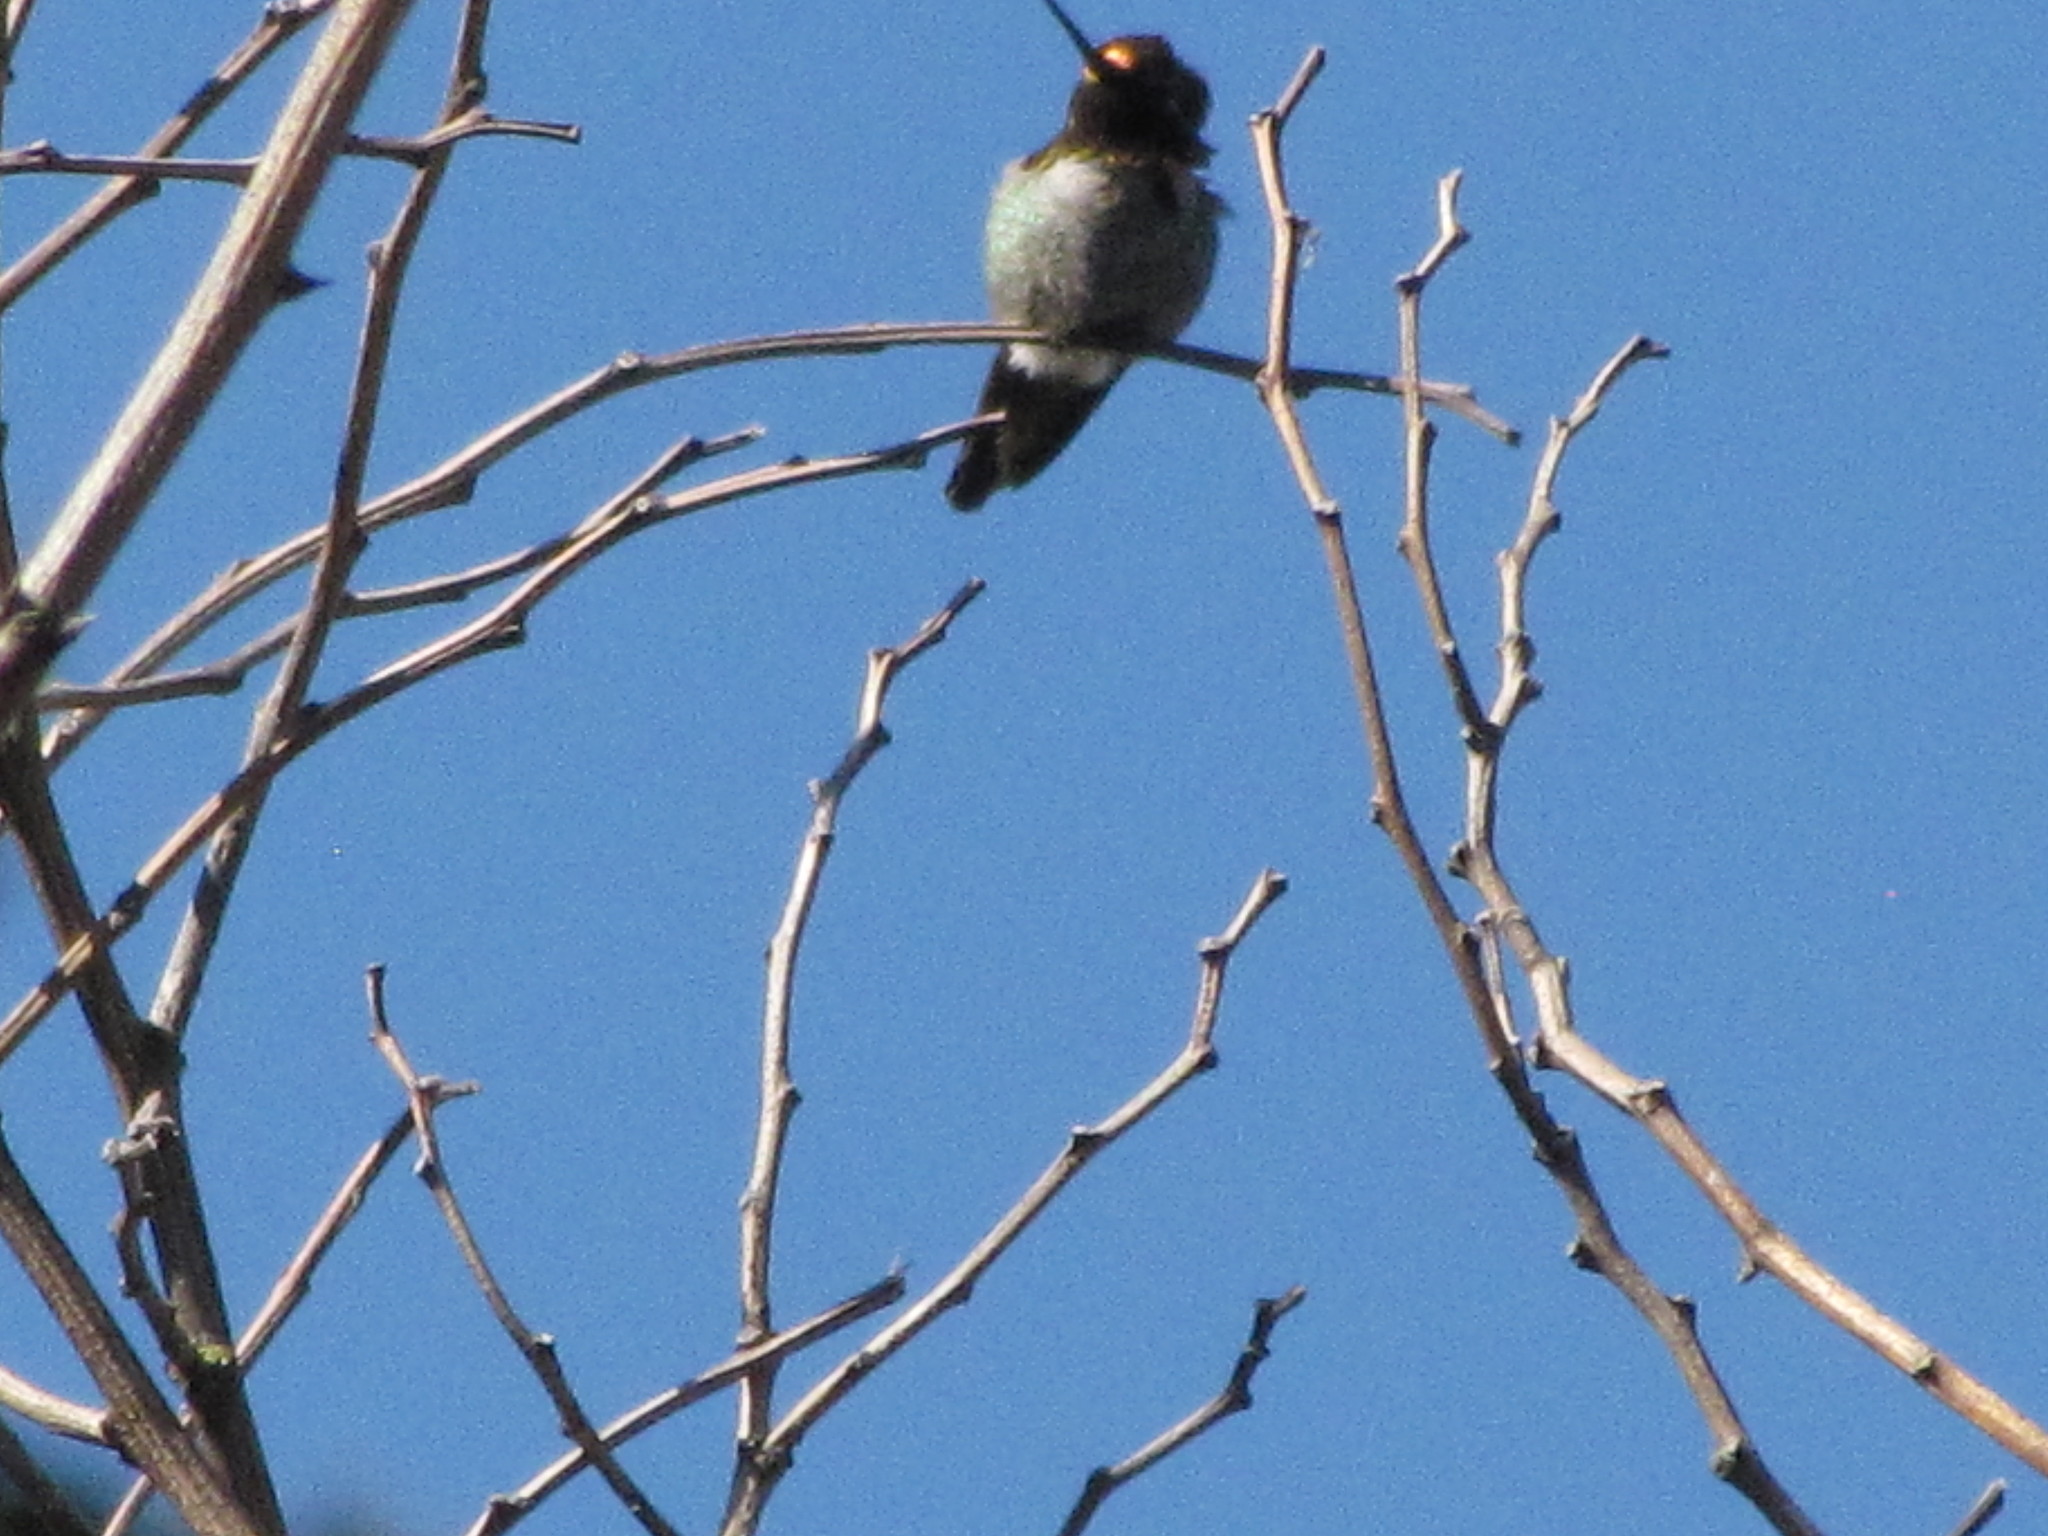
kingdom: Animalia
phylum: Chordata
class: Aves
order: Apodiformes
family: Trochilidae
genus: Calypte
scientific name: Calypte anna
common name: Anna's hummingbird
